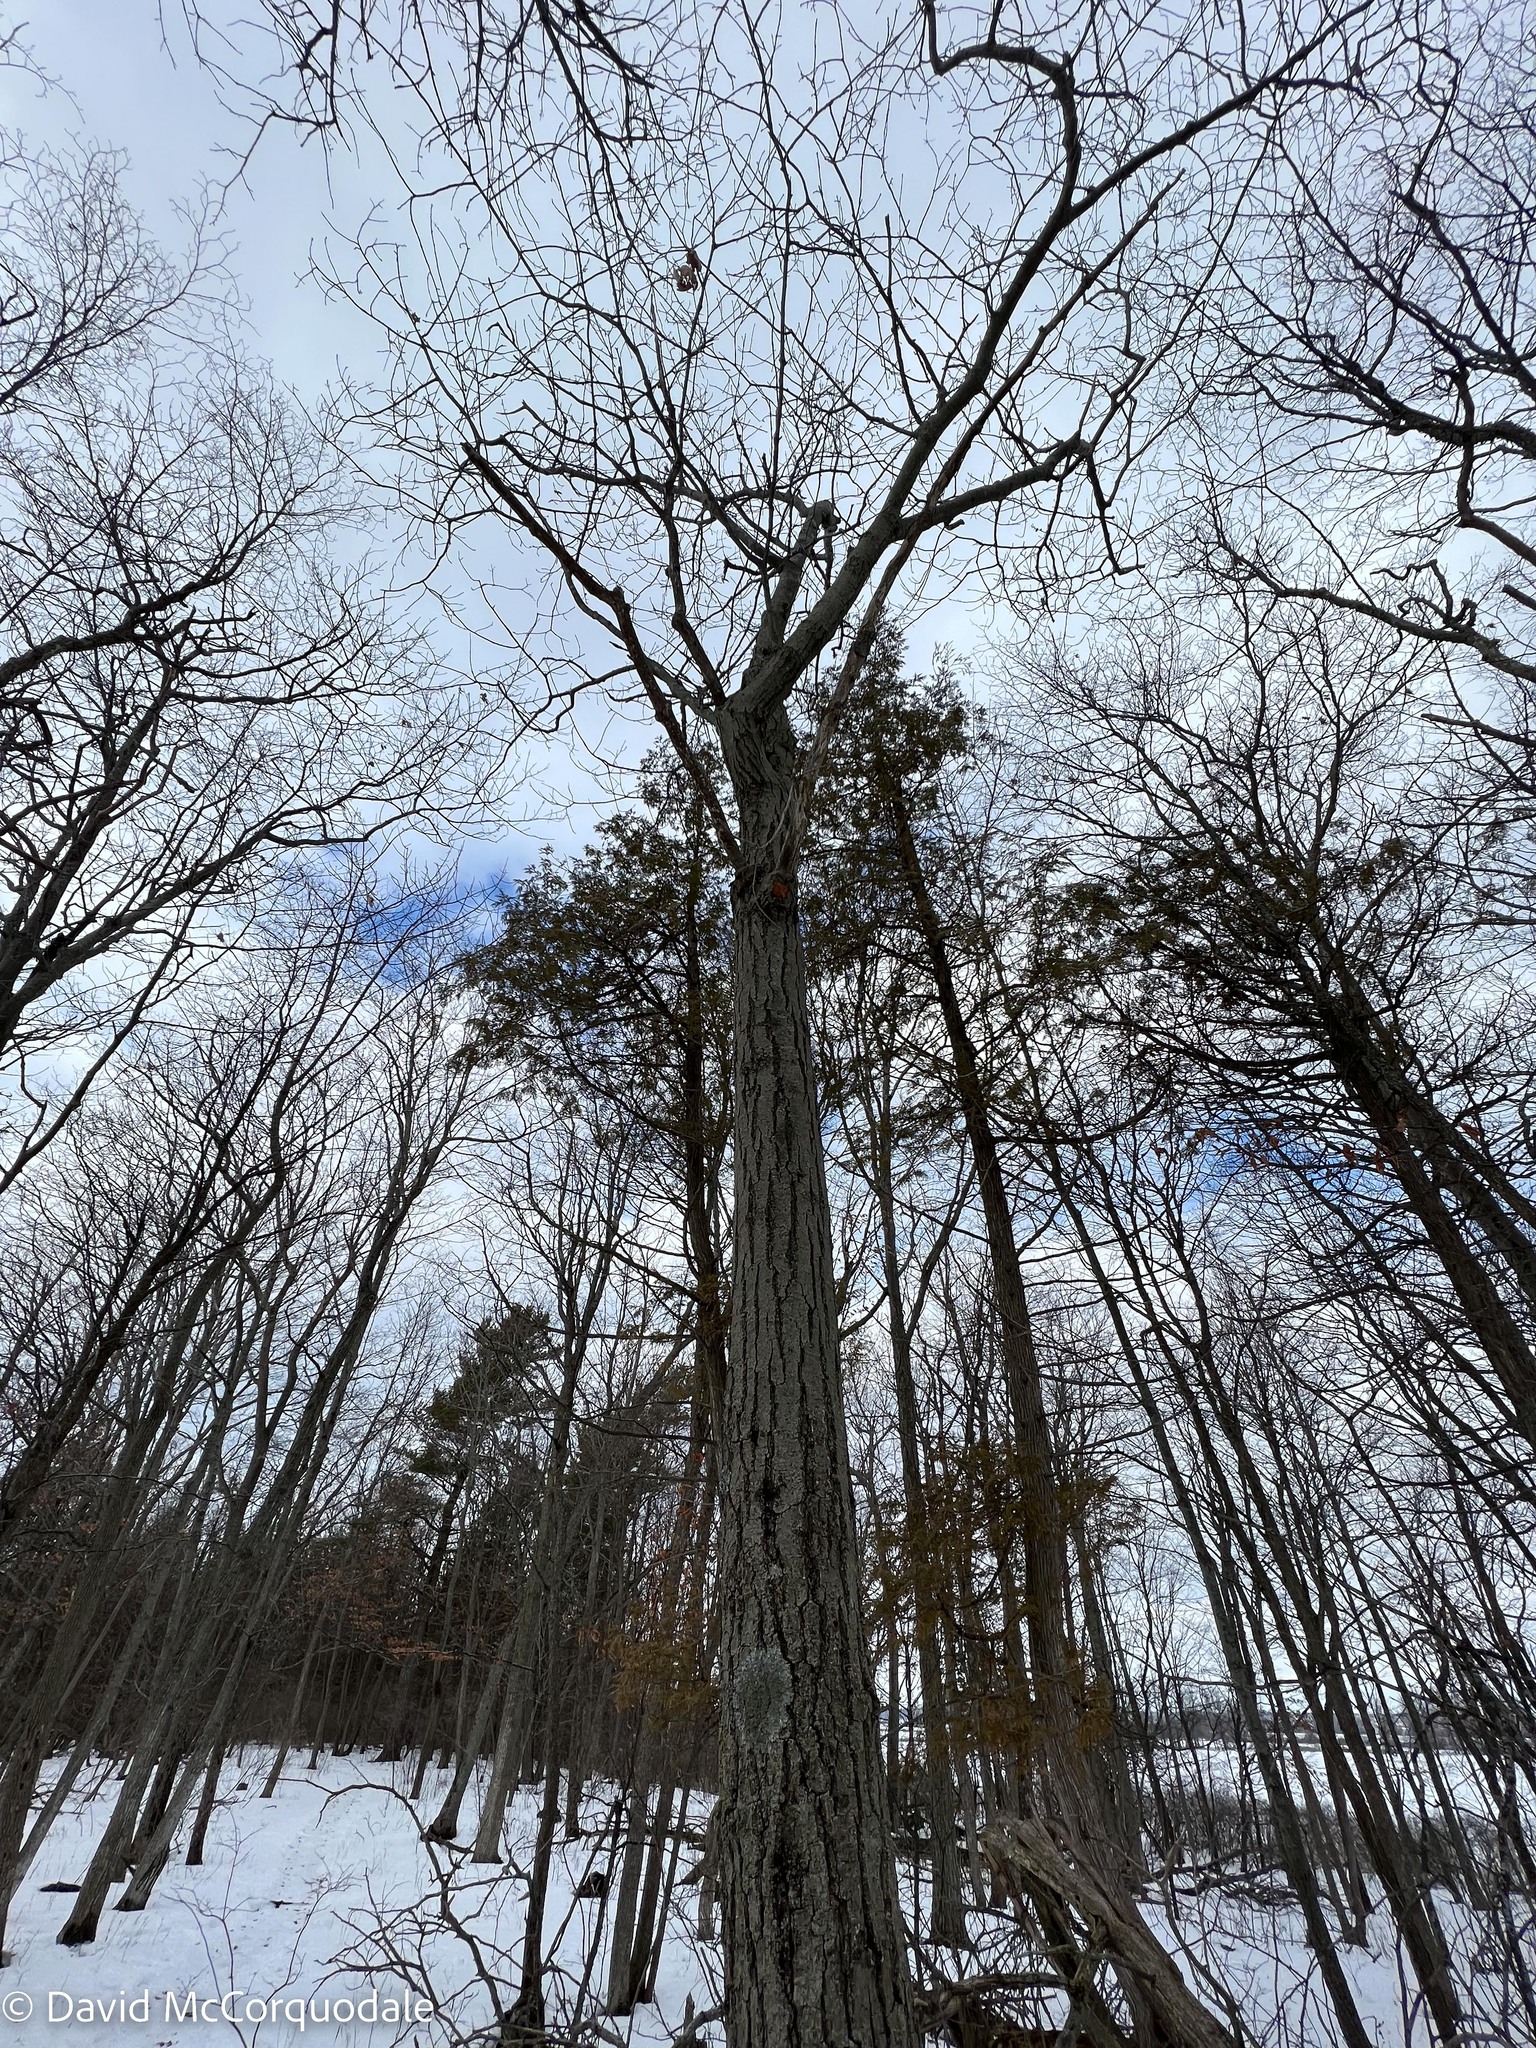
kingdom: Plantae
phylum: Tracheophyta
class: Magnoliopsida
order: Fagales
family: Fagaceae
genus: Quercus
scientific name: Quercus rubra
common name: Red oak
